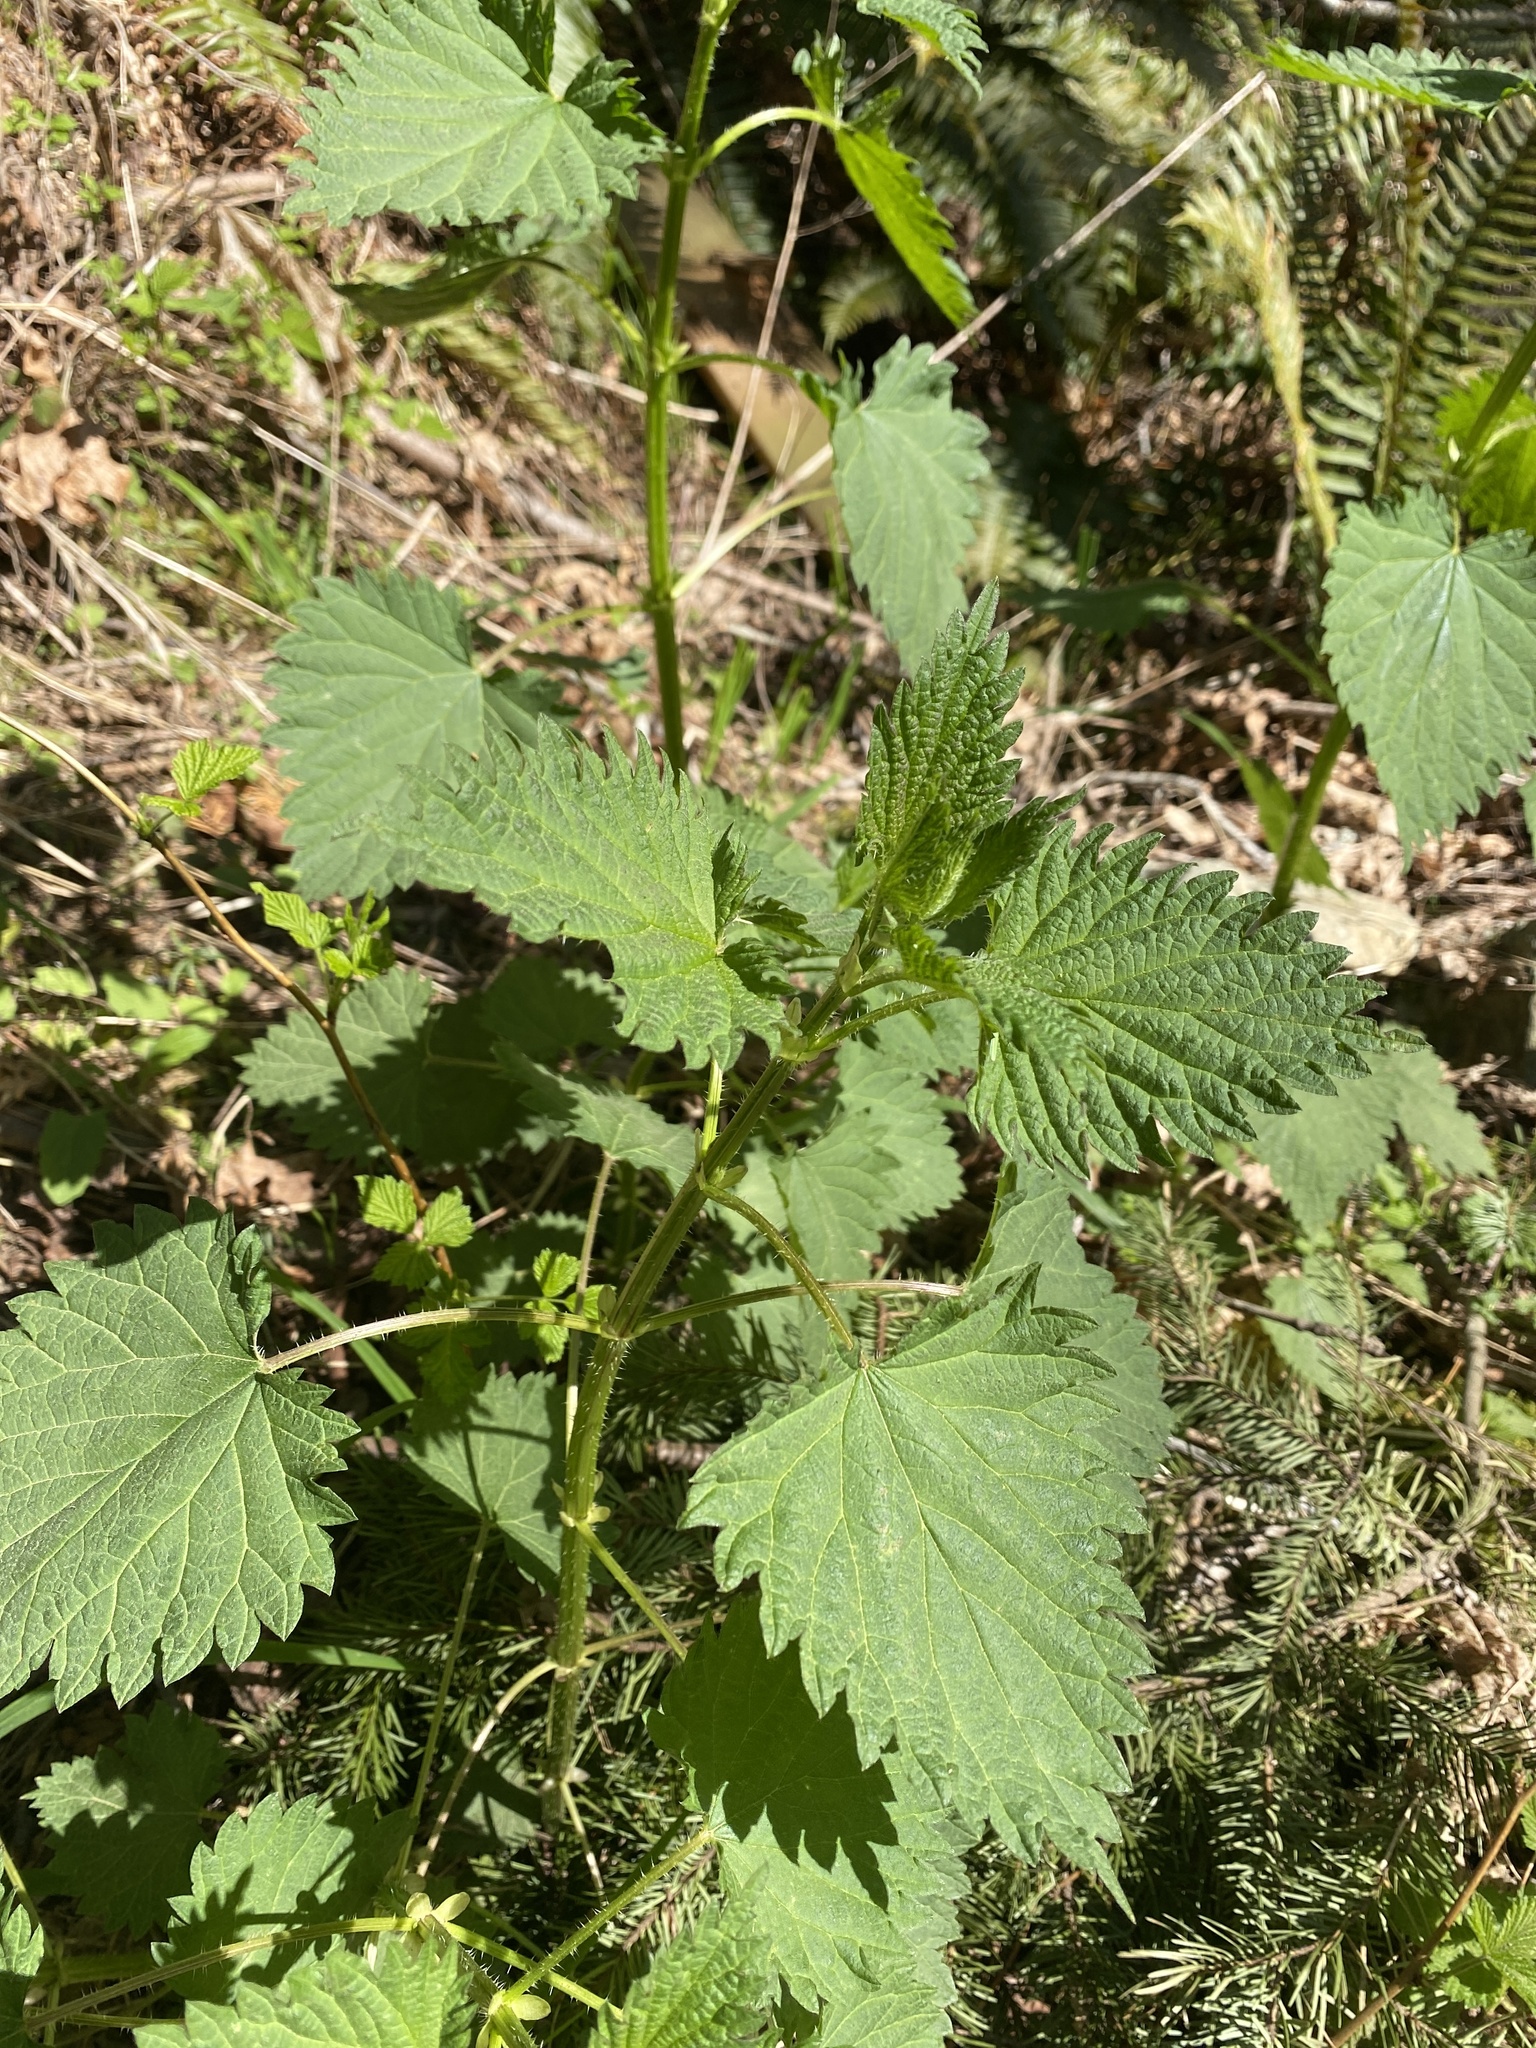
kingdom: Plantae
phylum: Tracheophyta
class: Magnoliopsida
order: Rosales
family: Urticaceae
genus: Urtica
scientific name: Urtica dioica
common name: Common nettle
